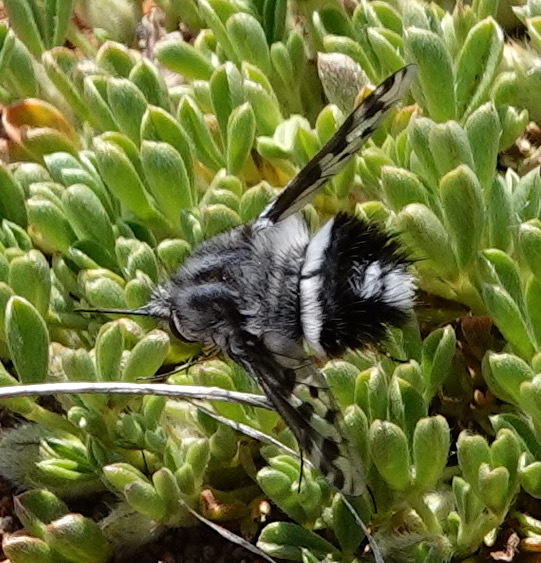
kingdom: Animalia
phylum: Arthropoda
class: Insecta
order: Diptera
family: Bombyliidae
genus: Australoechus
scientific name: Australoechus megaspilus
